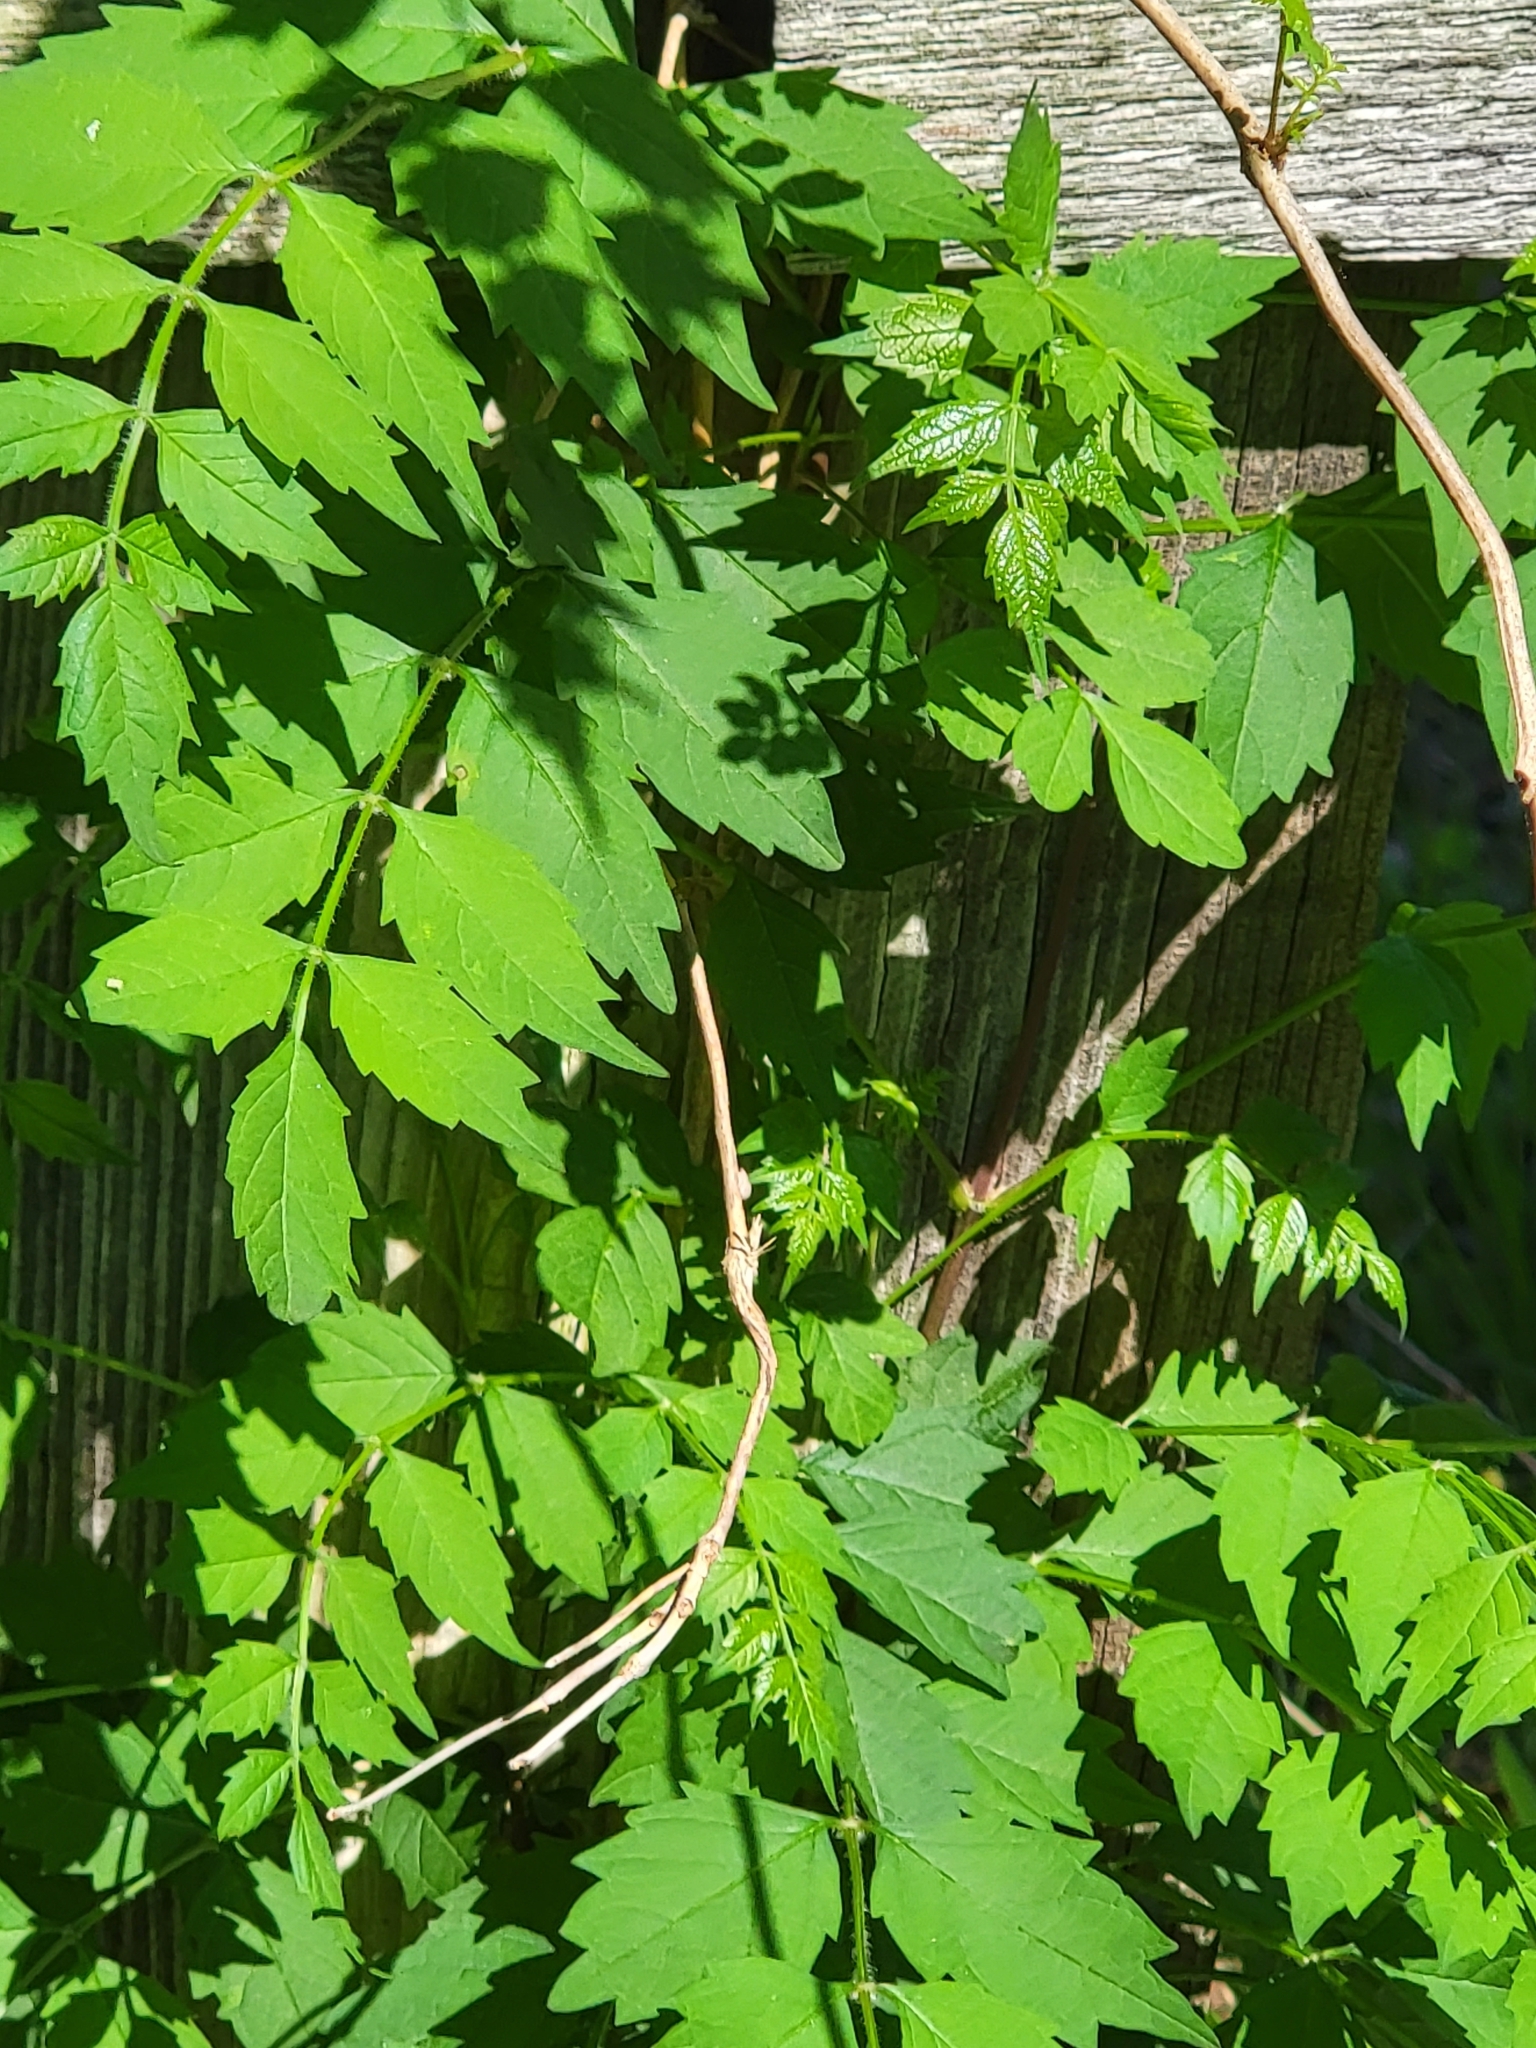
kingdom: Plantae
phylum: Tracheophyta
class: Magnoliopsida
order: Lamiales
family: Bignoniaceae
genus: Campsis
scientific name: Campsis radicans
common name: Trumpet-creeper
